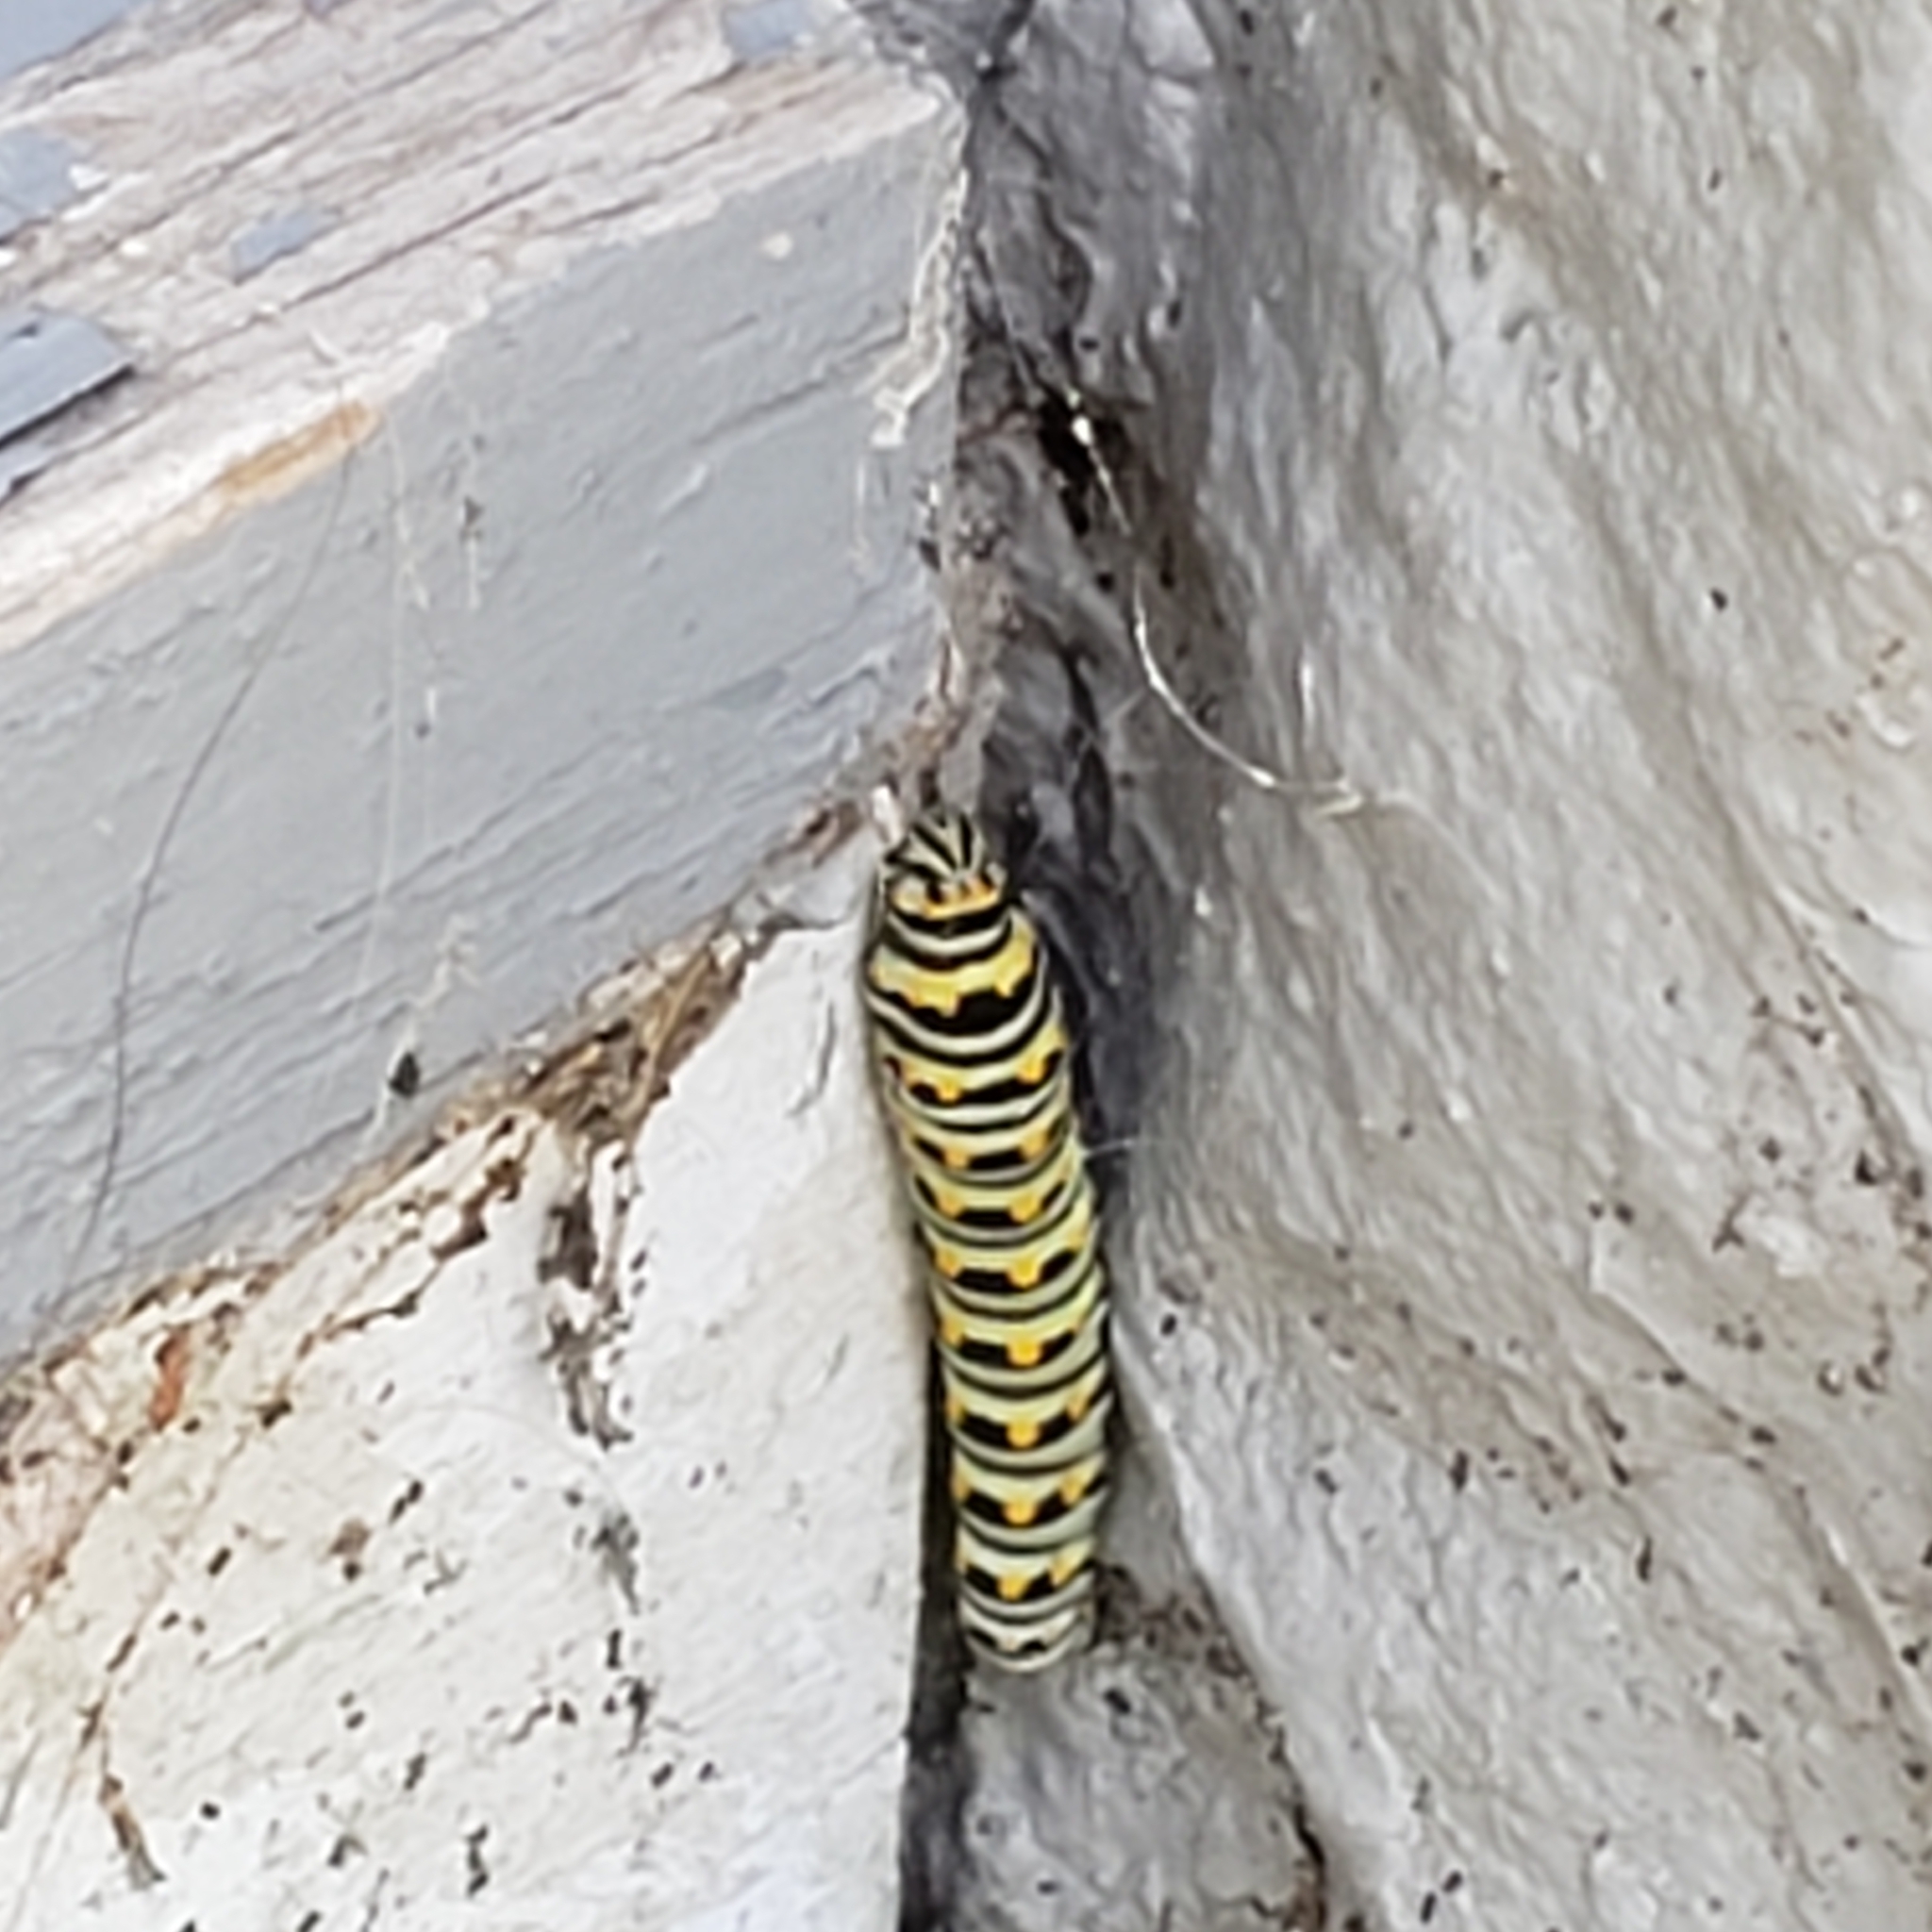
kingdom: Animalia
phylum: Arthropoda
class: Insecta
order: Lepidoptera
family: Papilionidae
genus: Papilio
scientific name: Papilio polyxenes
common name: Black swallowtail
